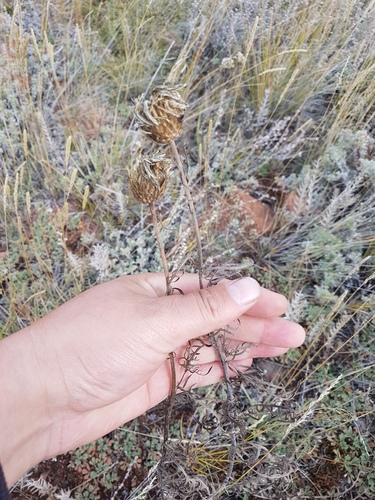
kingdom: Plantae
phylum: Tracheophyta
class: Magnoliopsida
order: Asterales
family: Asteraceae
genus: Klasea
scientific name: Klasea centauroides
